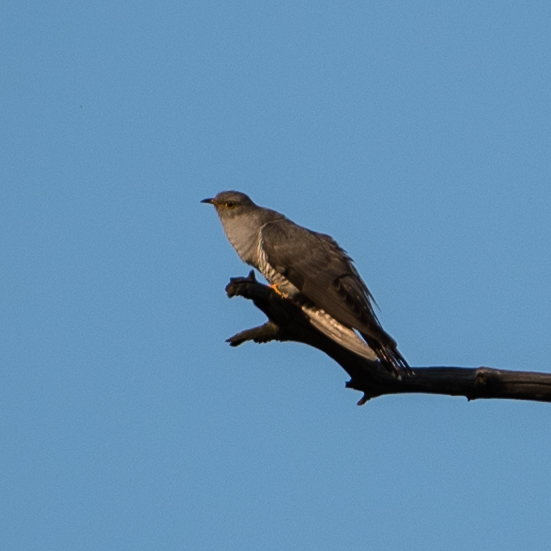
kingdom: Animalia
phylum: Chordata
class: Aves
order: Cuculiformes
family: Cuculidae
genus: Cuculus
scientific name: Cuculus canorus
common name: Common cuckoo
